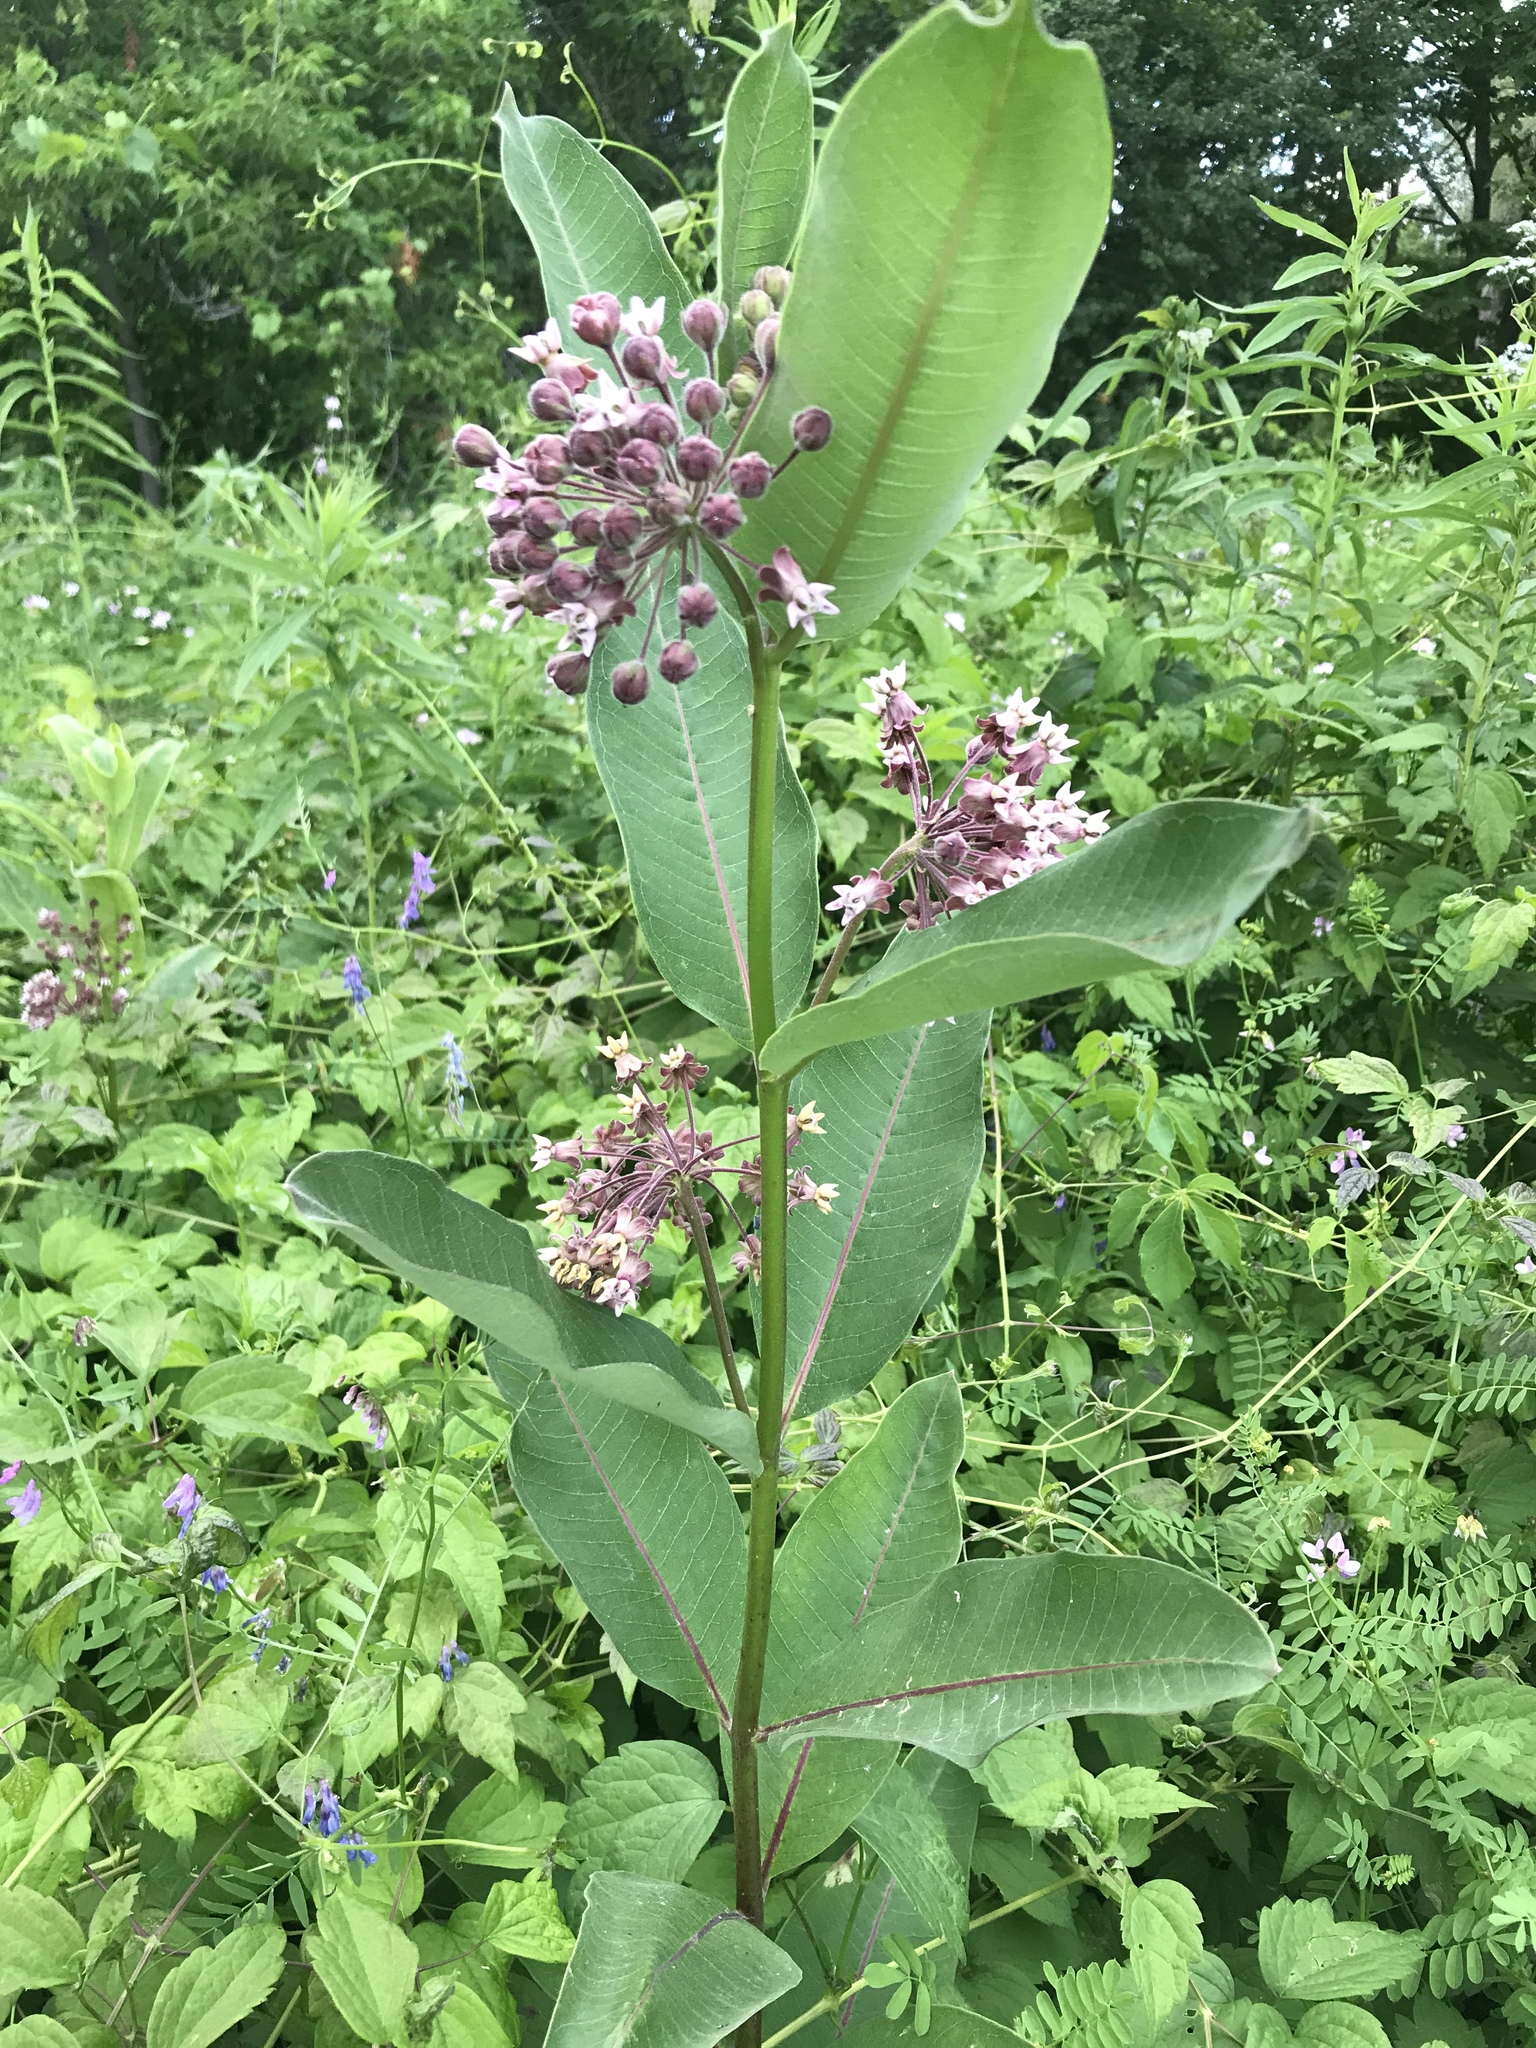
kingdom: Plantae
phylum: Tracheophyta
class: Magnoliopsida
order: Gentianales
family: Apocynaceae
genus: Asclepias
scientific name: Asclepias syriaca
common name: Common milkweed
